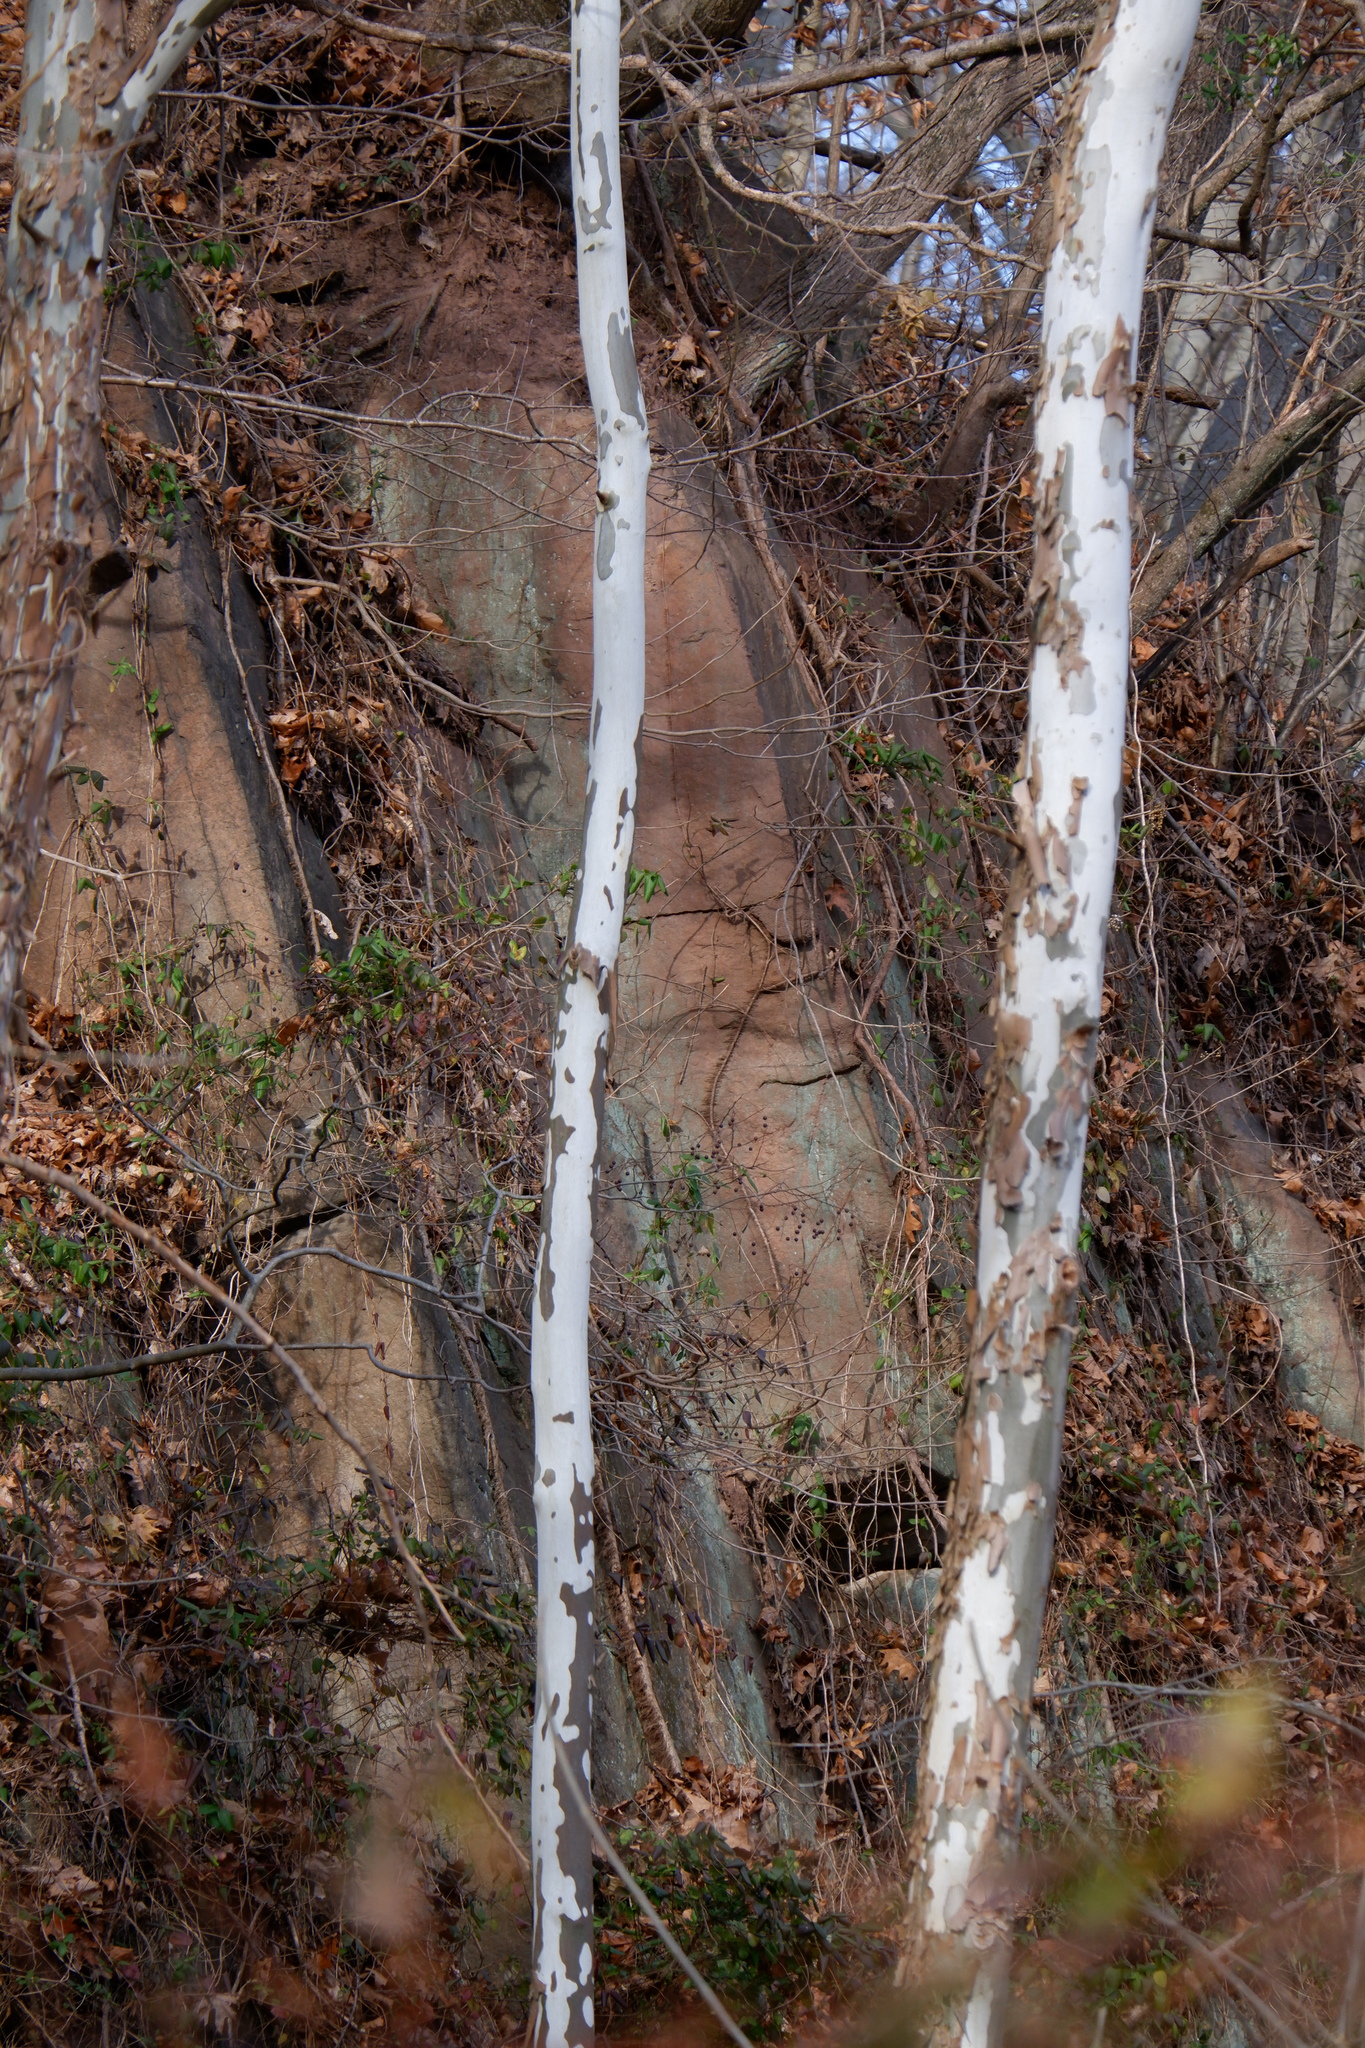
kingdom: Plantae
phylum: Tracheophyta
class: Magnoliopsida
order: Proteales
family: Platanaceae
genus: Platanus
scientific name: Platanus occidentalis
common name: American sycamore
